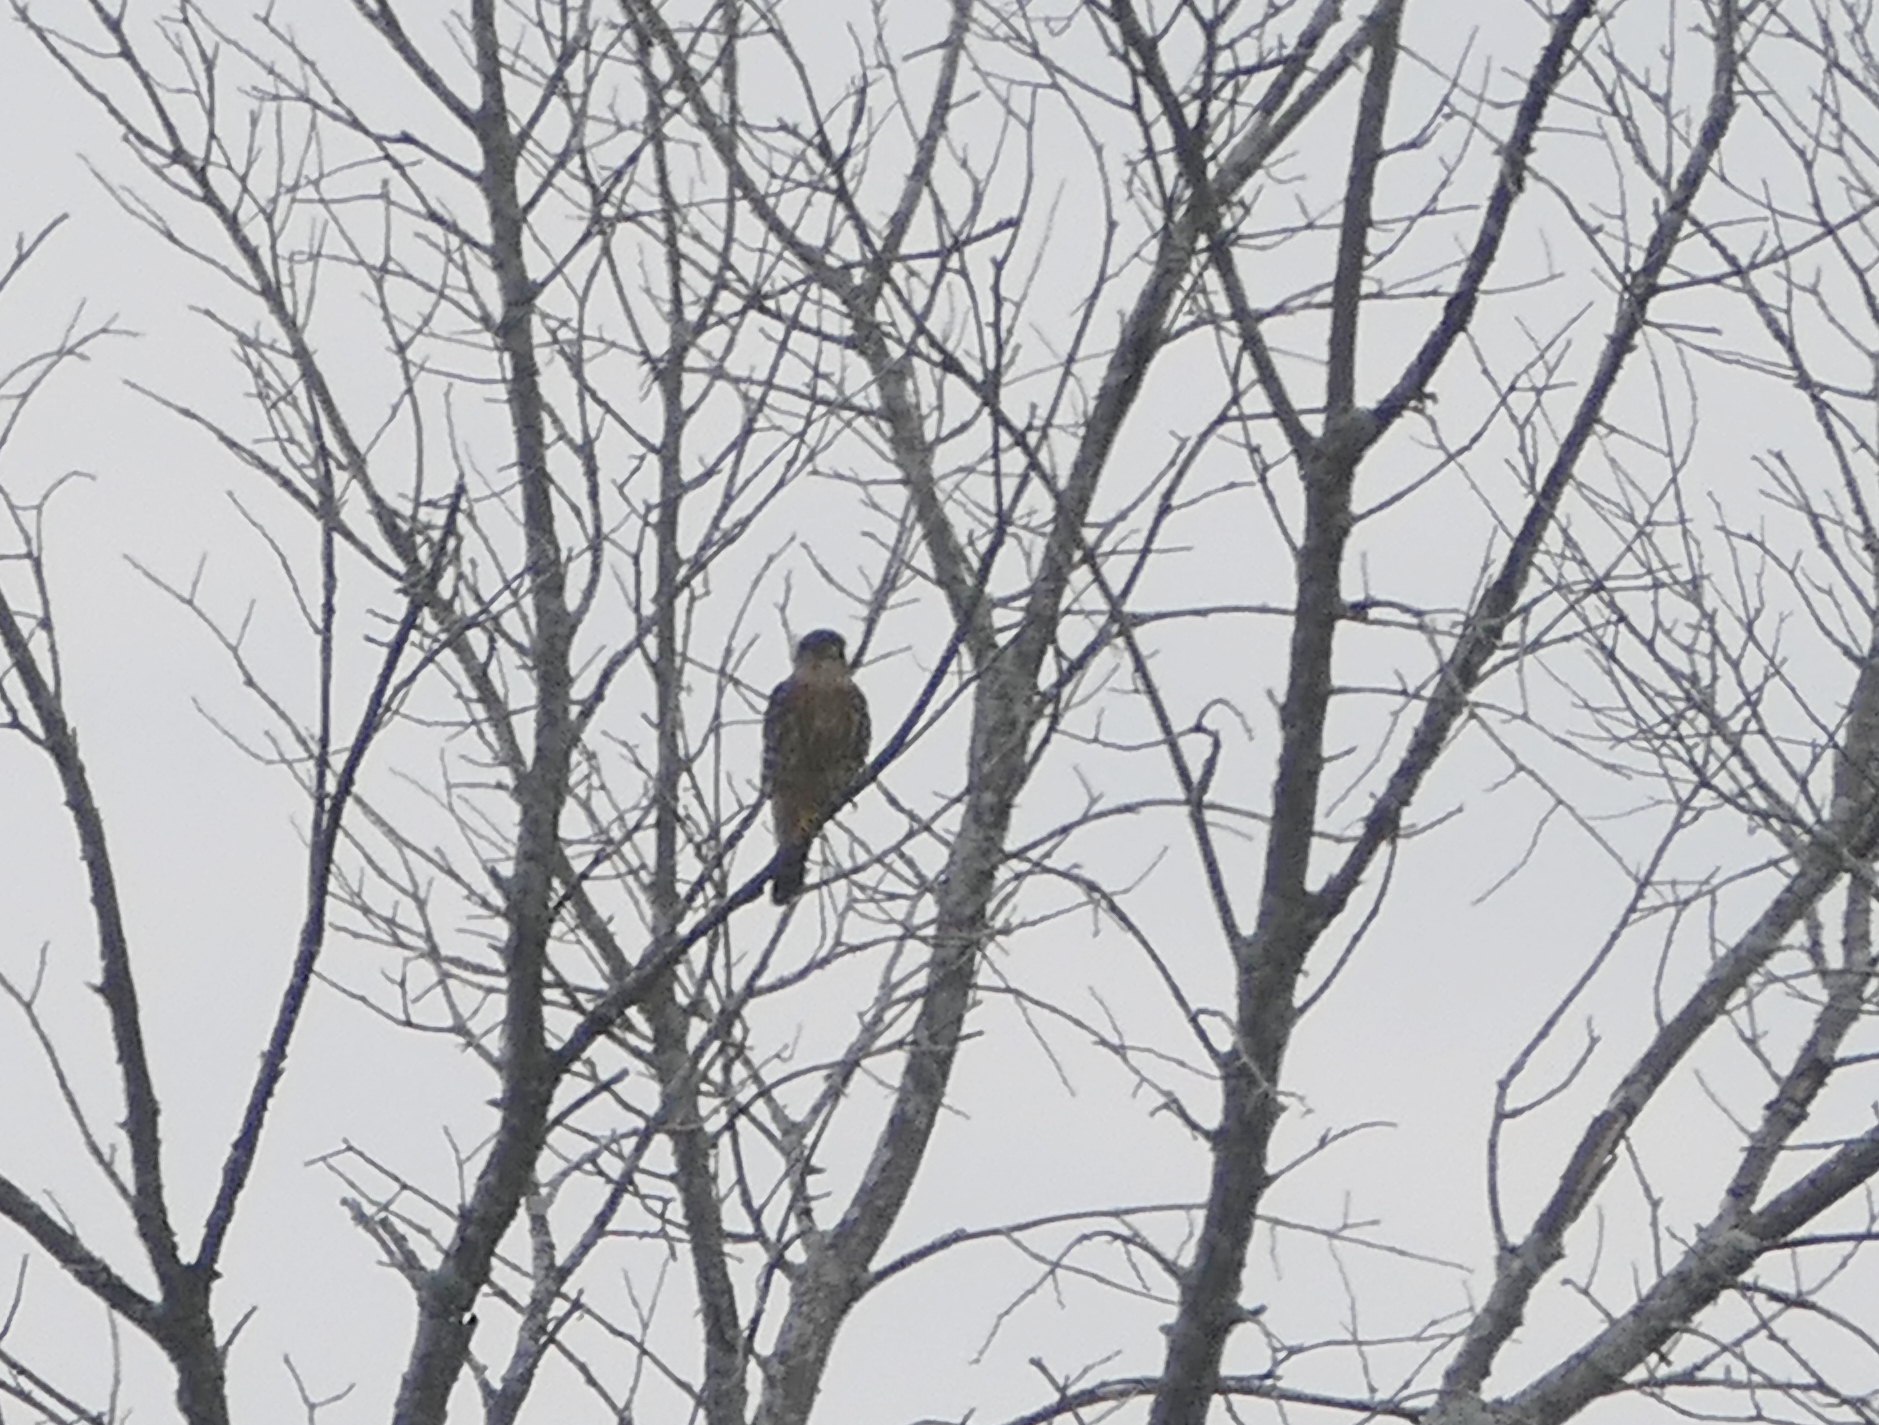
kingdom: Animalia
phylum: Chordata
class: Aves
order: Falconiformes
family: Falconidae
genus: Falco
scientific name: Falco columbarius
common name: Merlin
